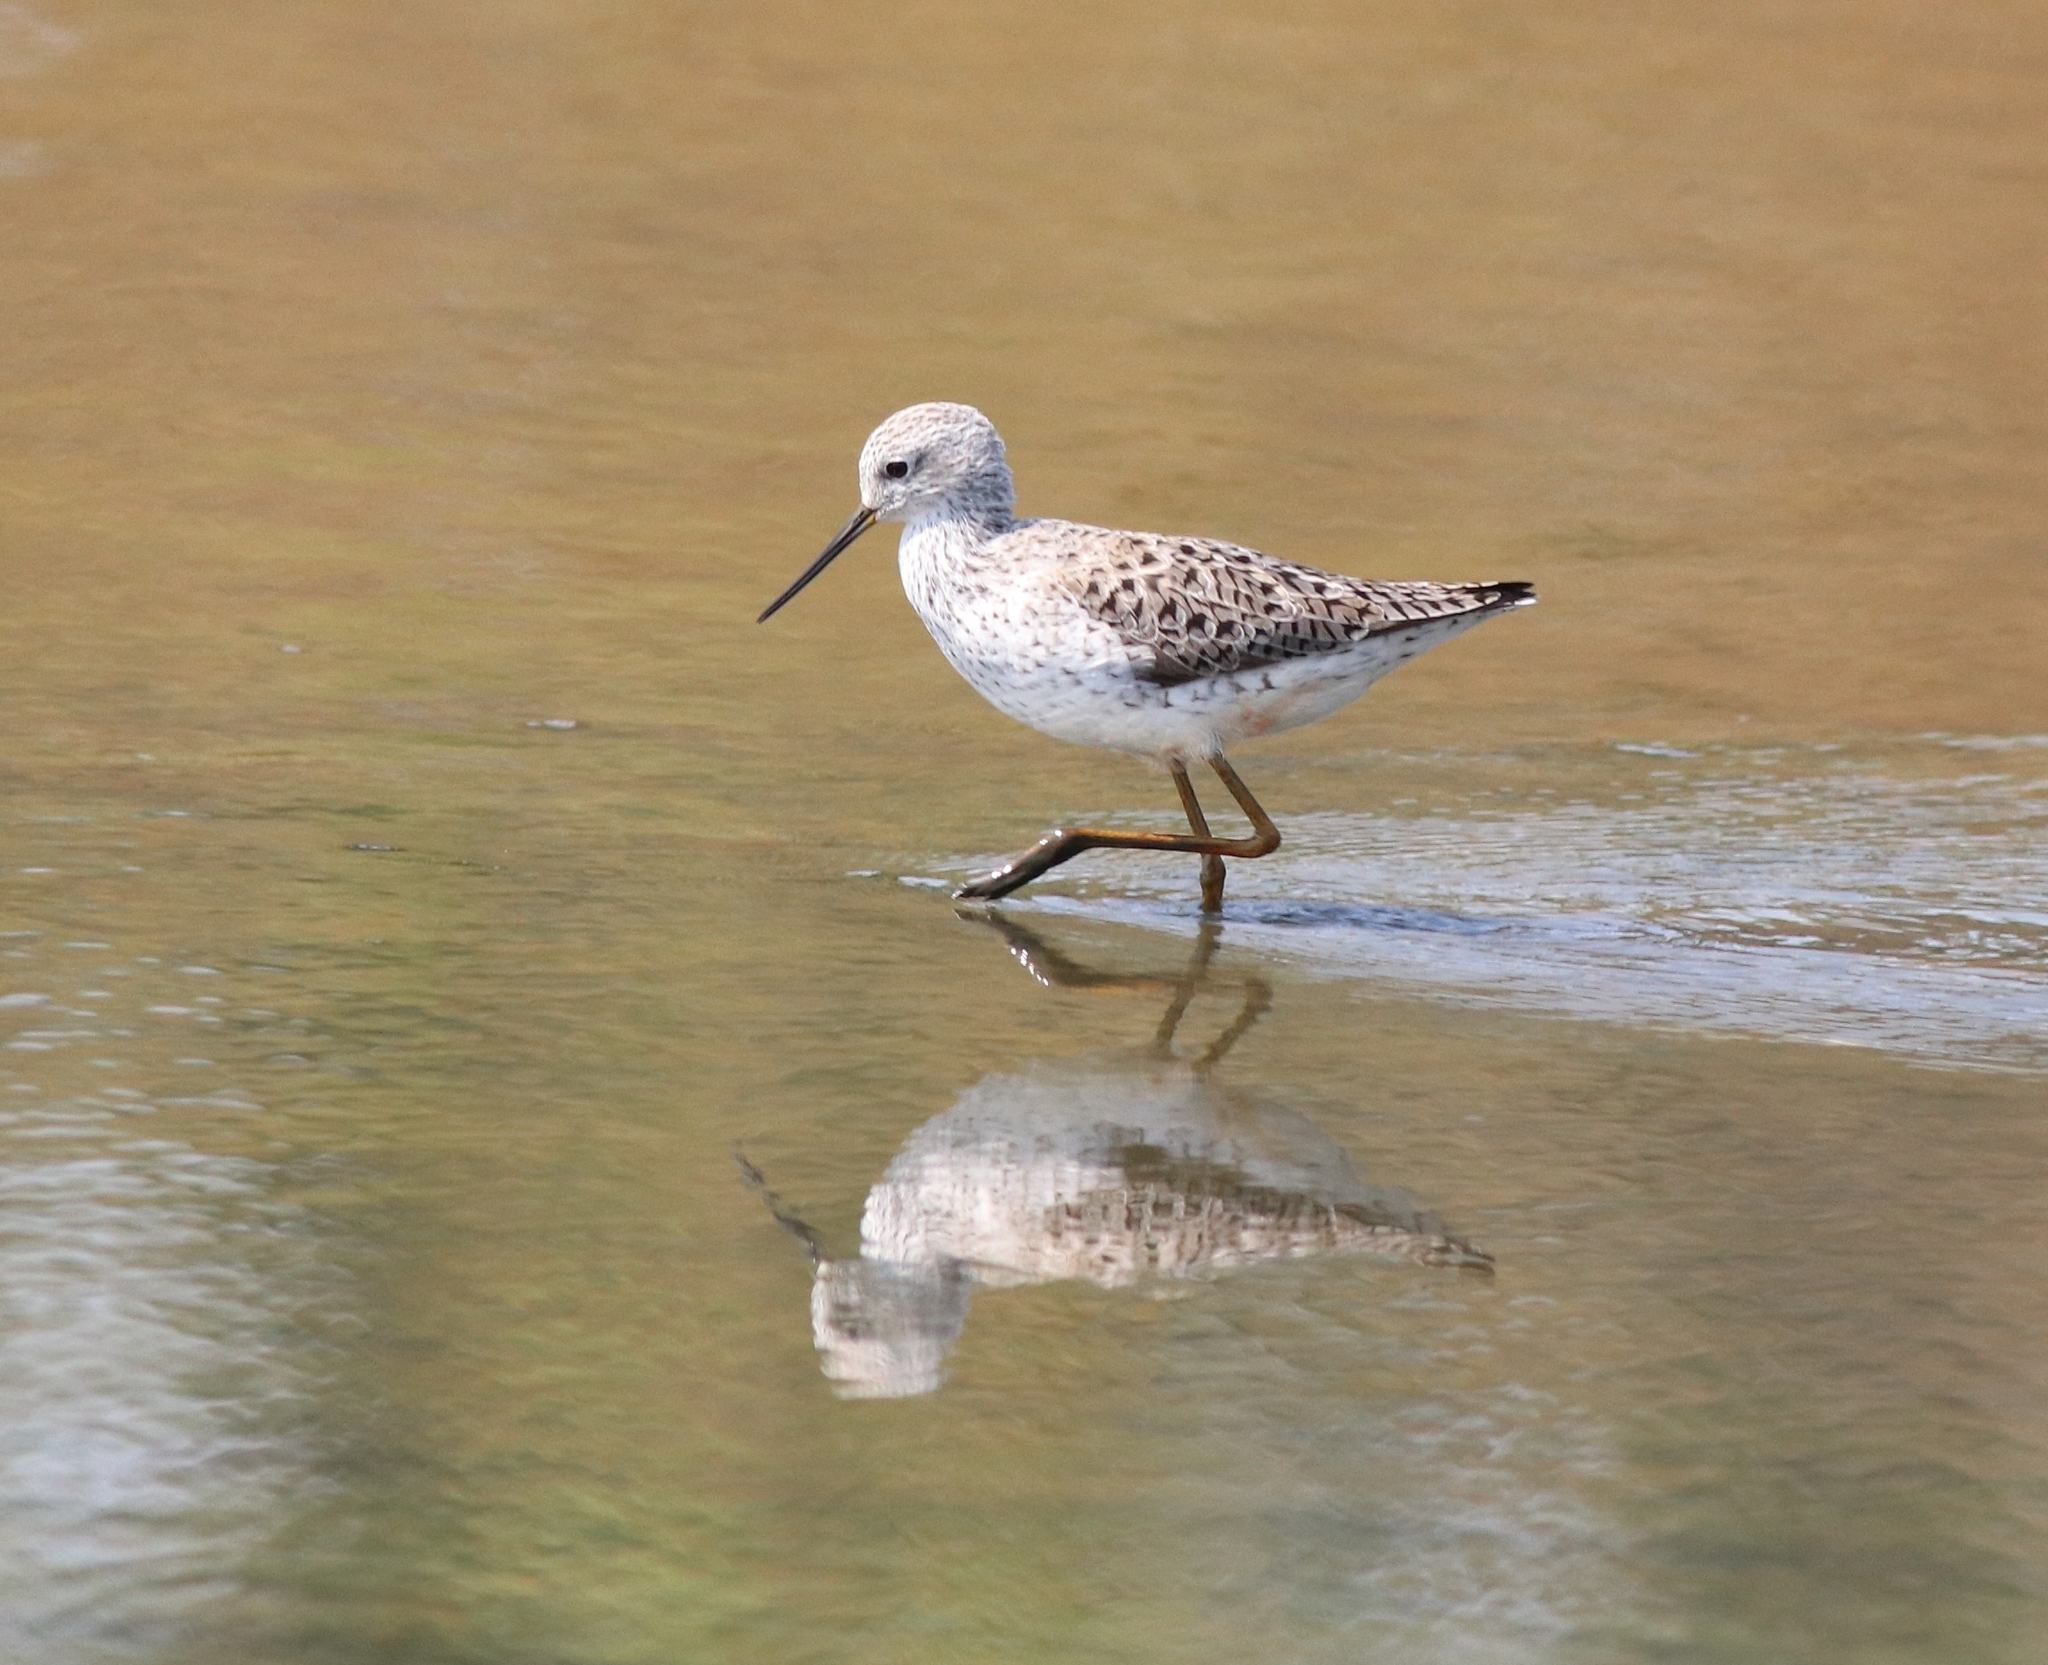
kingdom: Animalia
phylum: Chordata
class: Aves
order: Charadriiformes
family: Scolopacidae
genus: Tringa
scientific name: Tringa stagnatilis
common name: Marsh sandpiper
